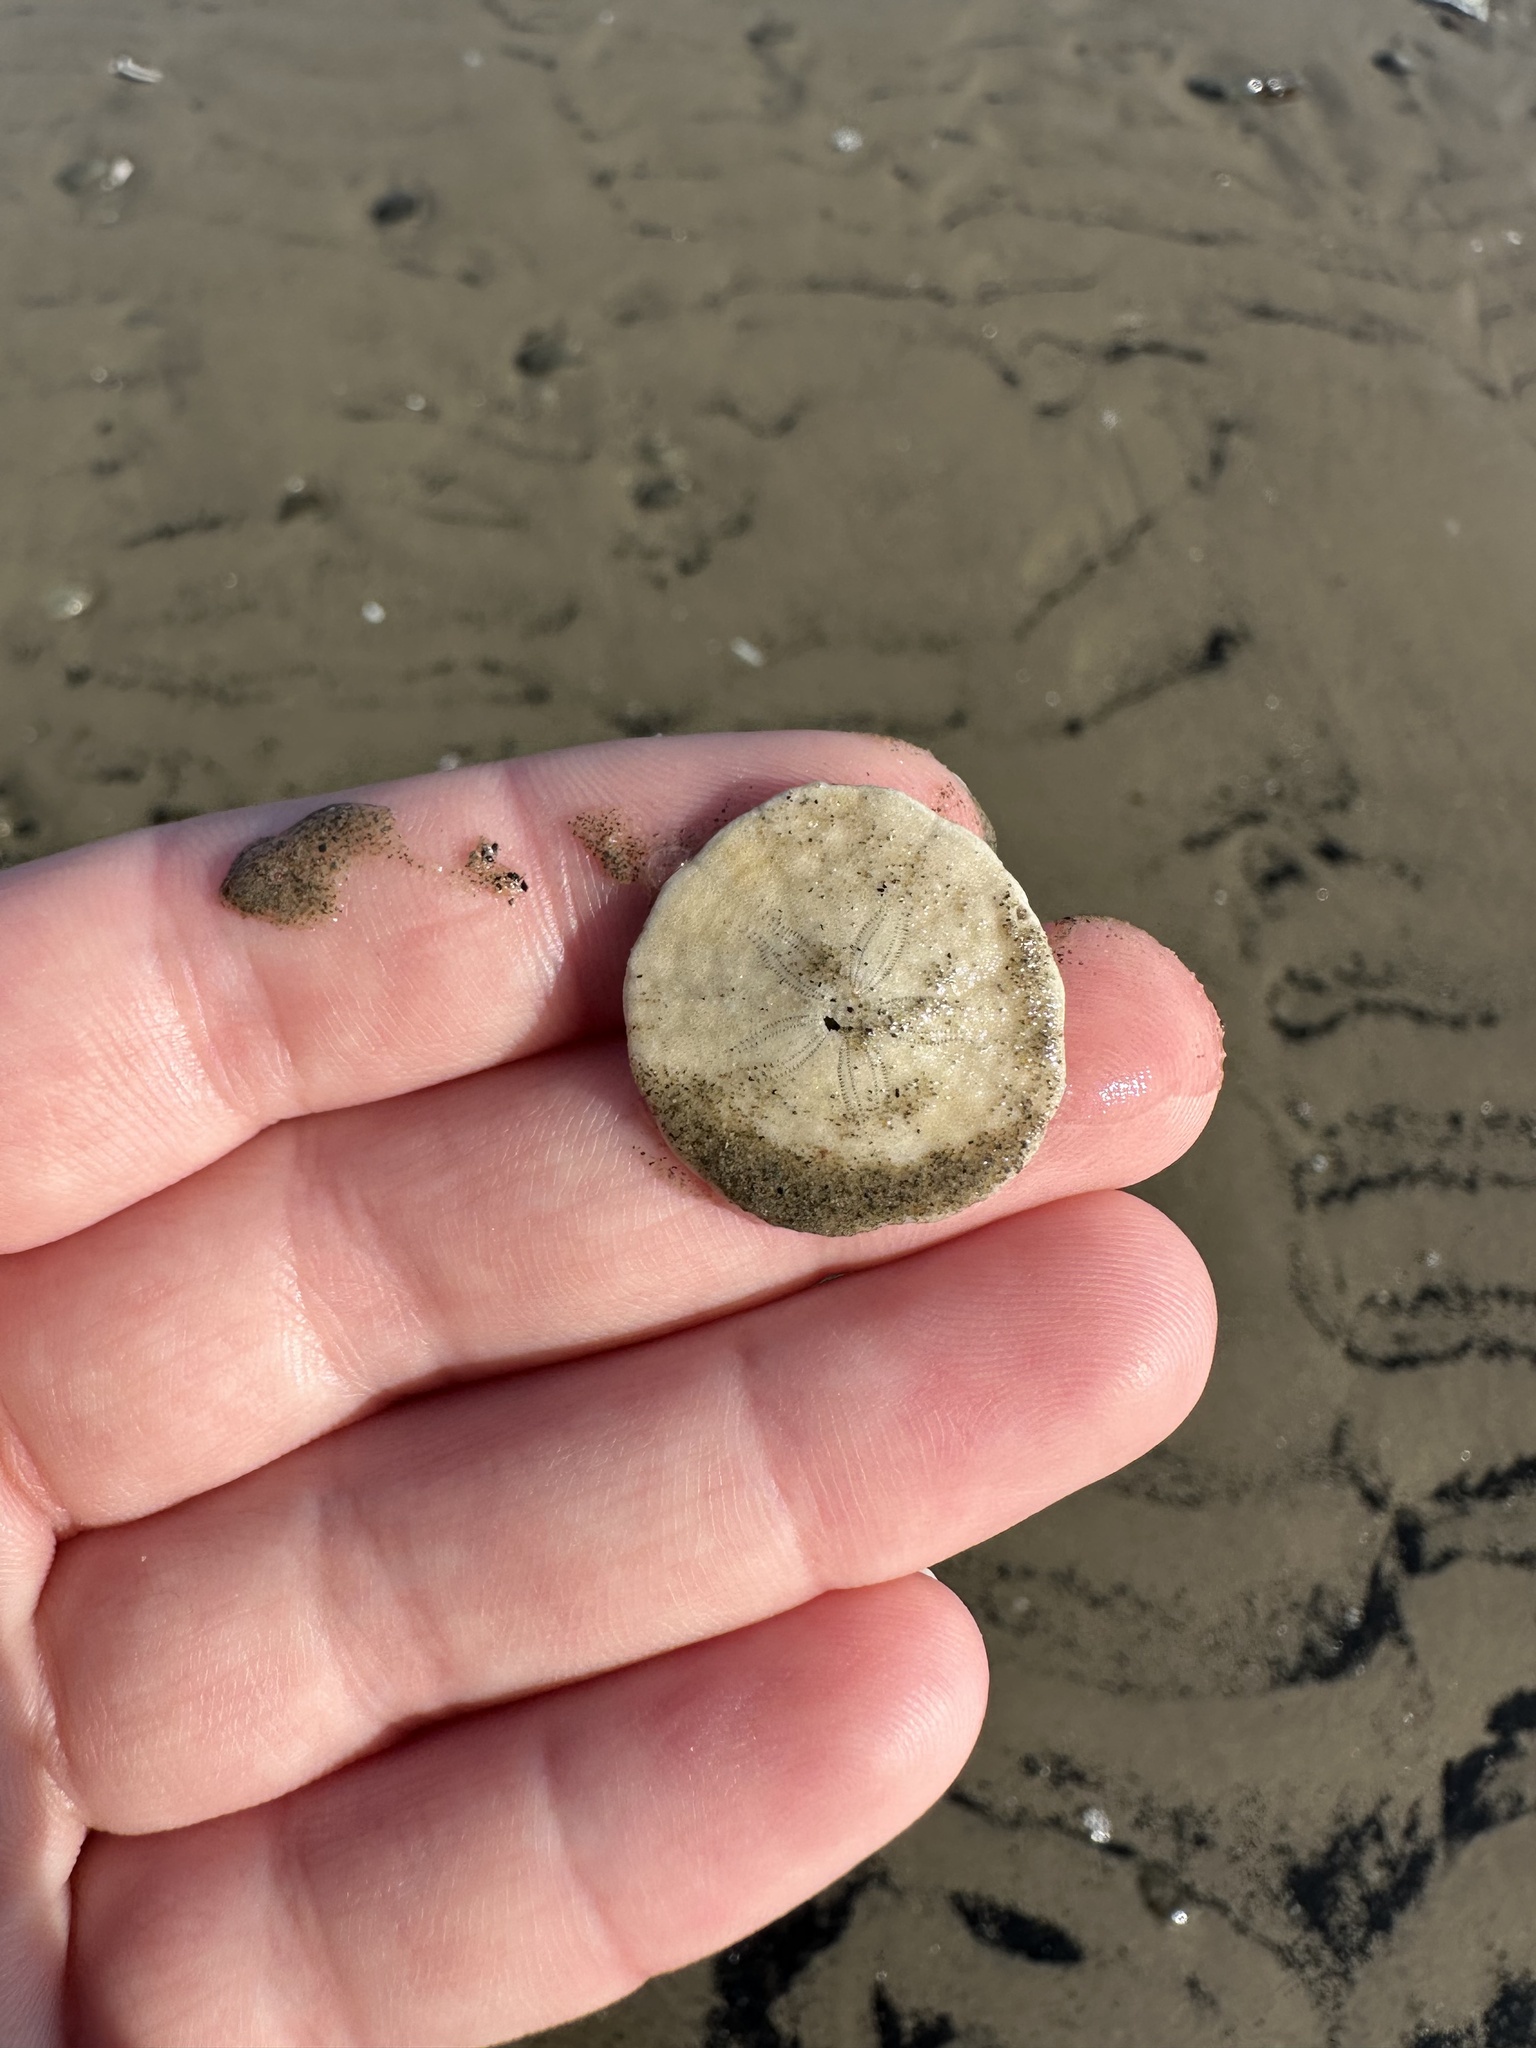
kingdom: Animalia
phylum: Echinodermata
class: Echinoidea
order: Echinolampadacea
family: Echinarachniidae
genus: Echinarachnius
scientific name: Echinarachnius parma
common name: Common sand dollar
